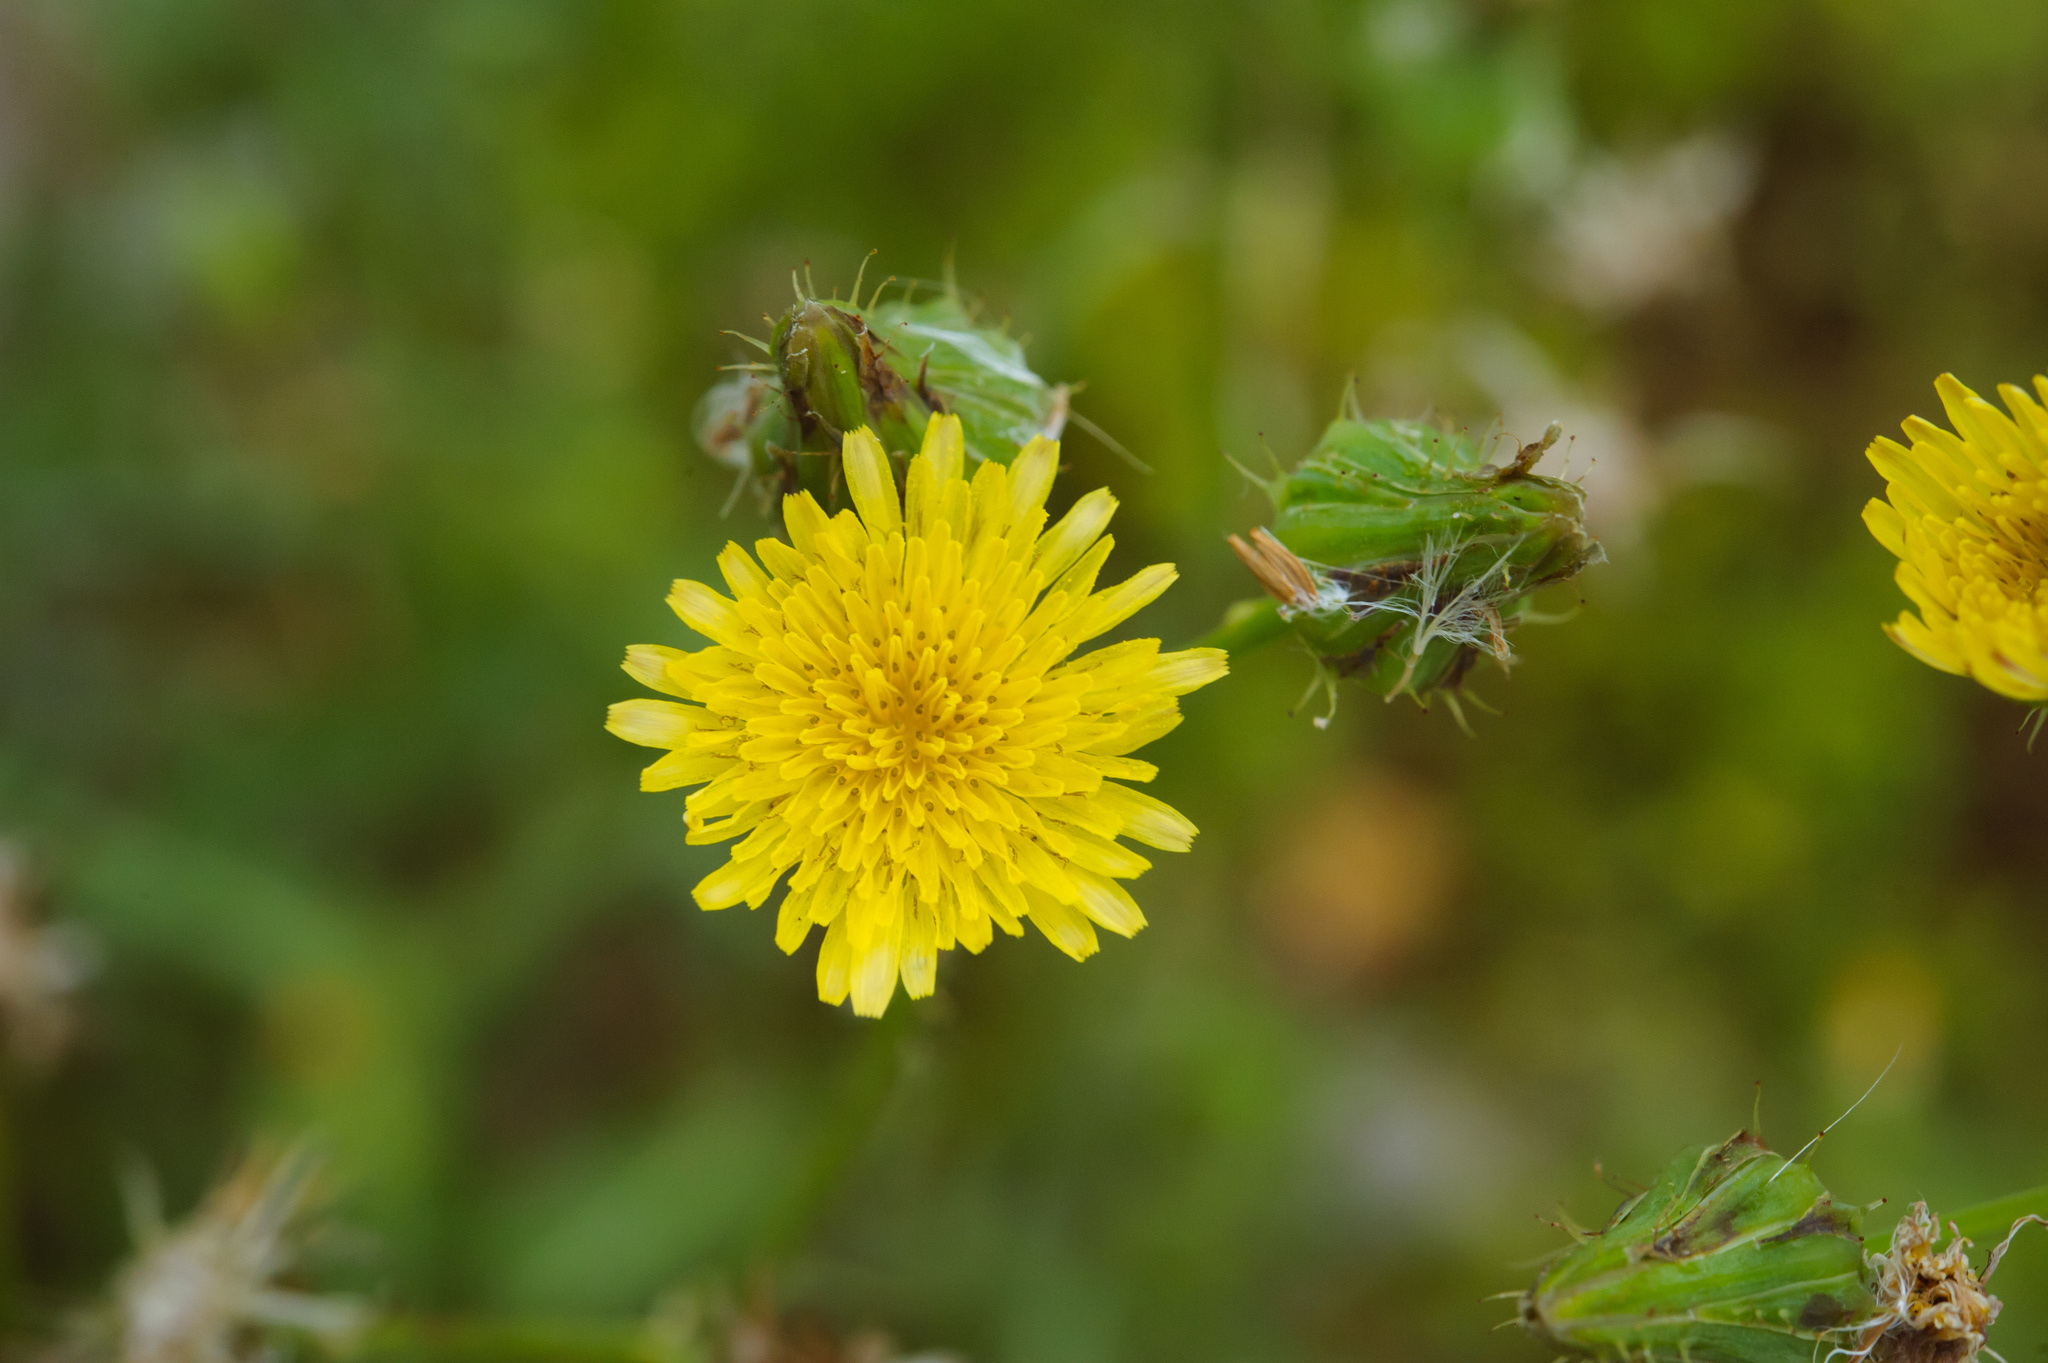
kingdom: Plantae
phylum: Tracheophyta
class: Magnoliopsida
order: Asterales
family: Asteraceae
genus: Sonchus
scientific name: Sonchus oleraceus
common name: Common sowthistle
